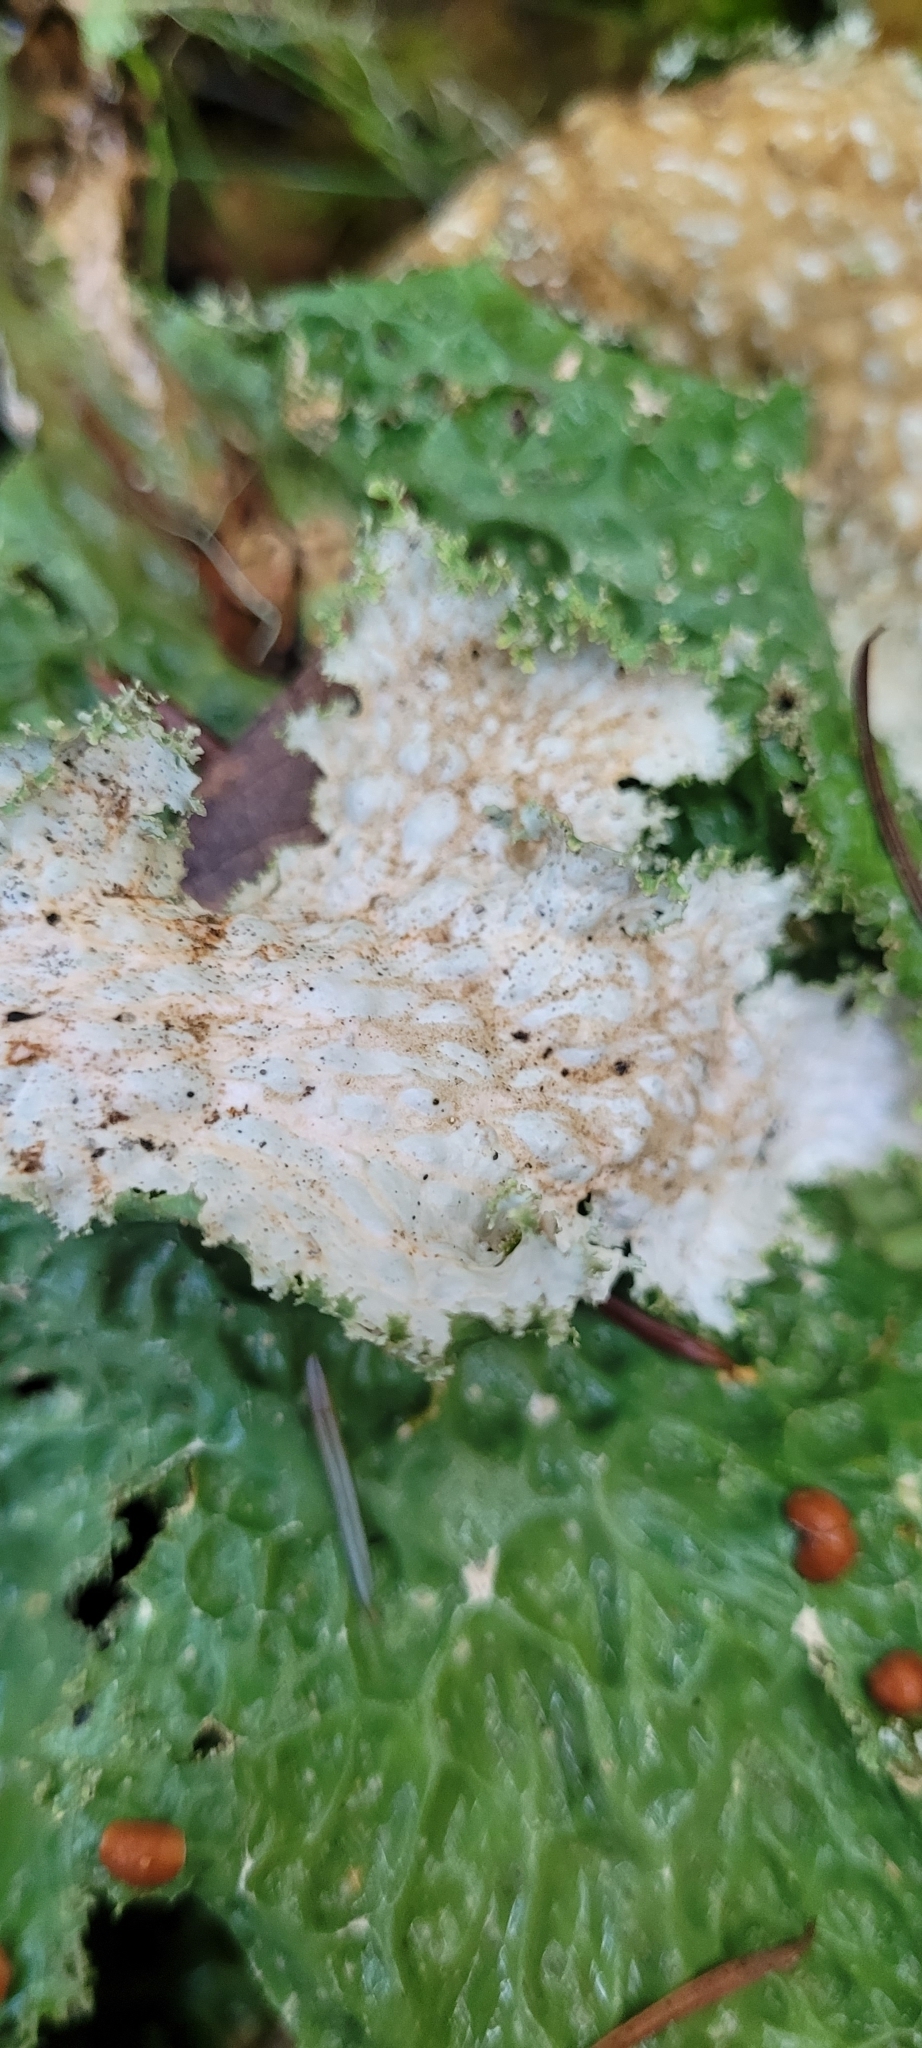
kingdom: Fungi
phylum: Ascomycota
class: Lecanoromycetes
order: Peltigerales
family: Lobariaceae
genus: Lobaria
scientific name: Lobaria oregana
